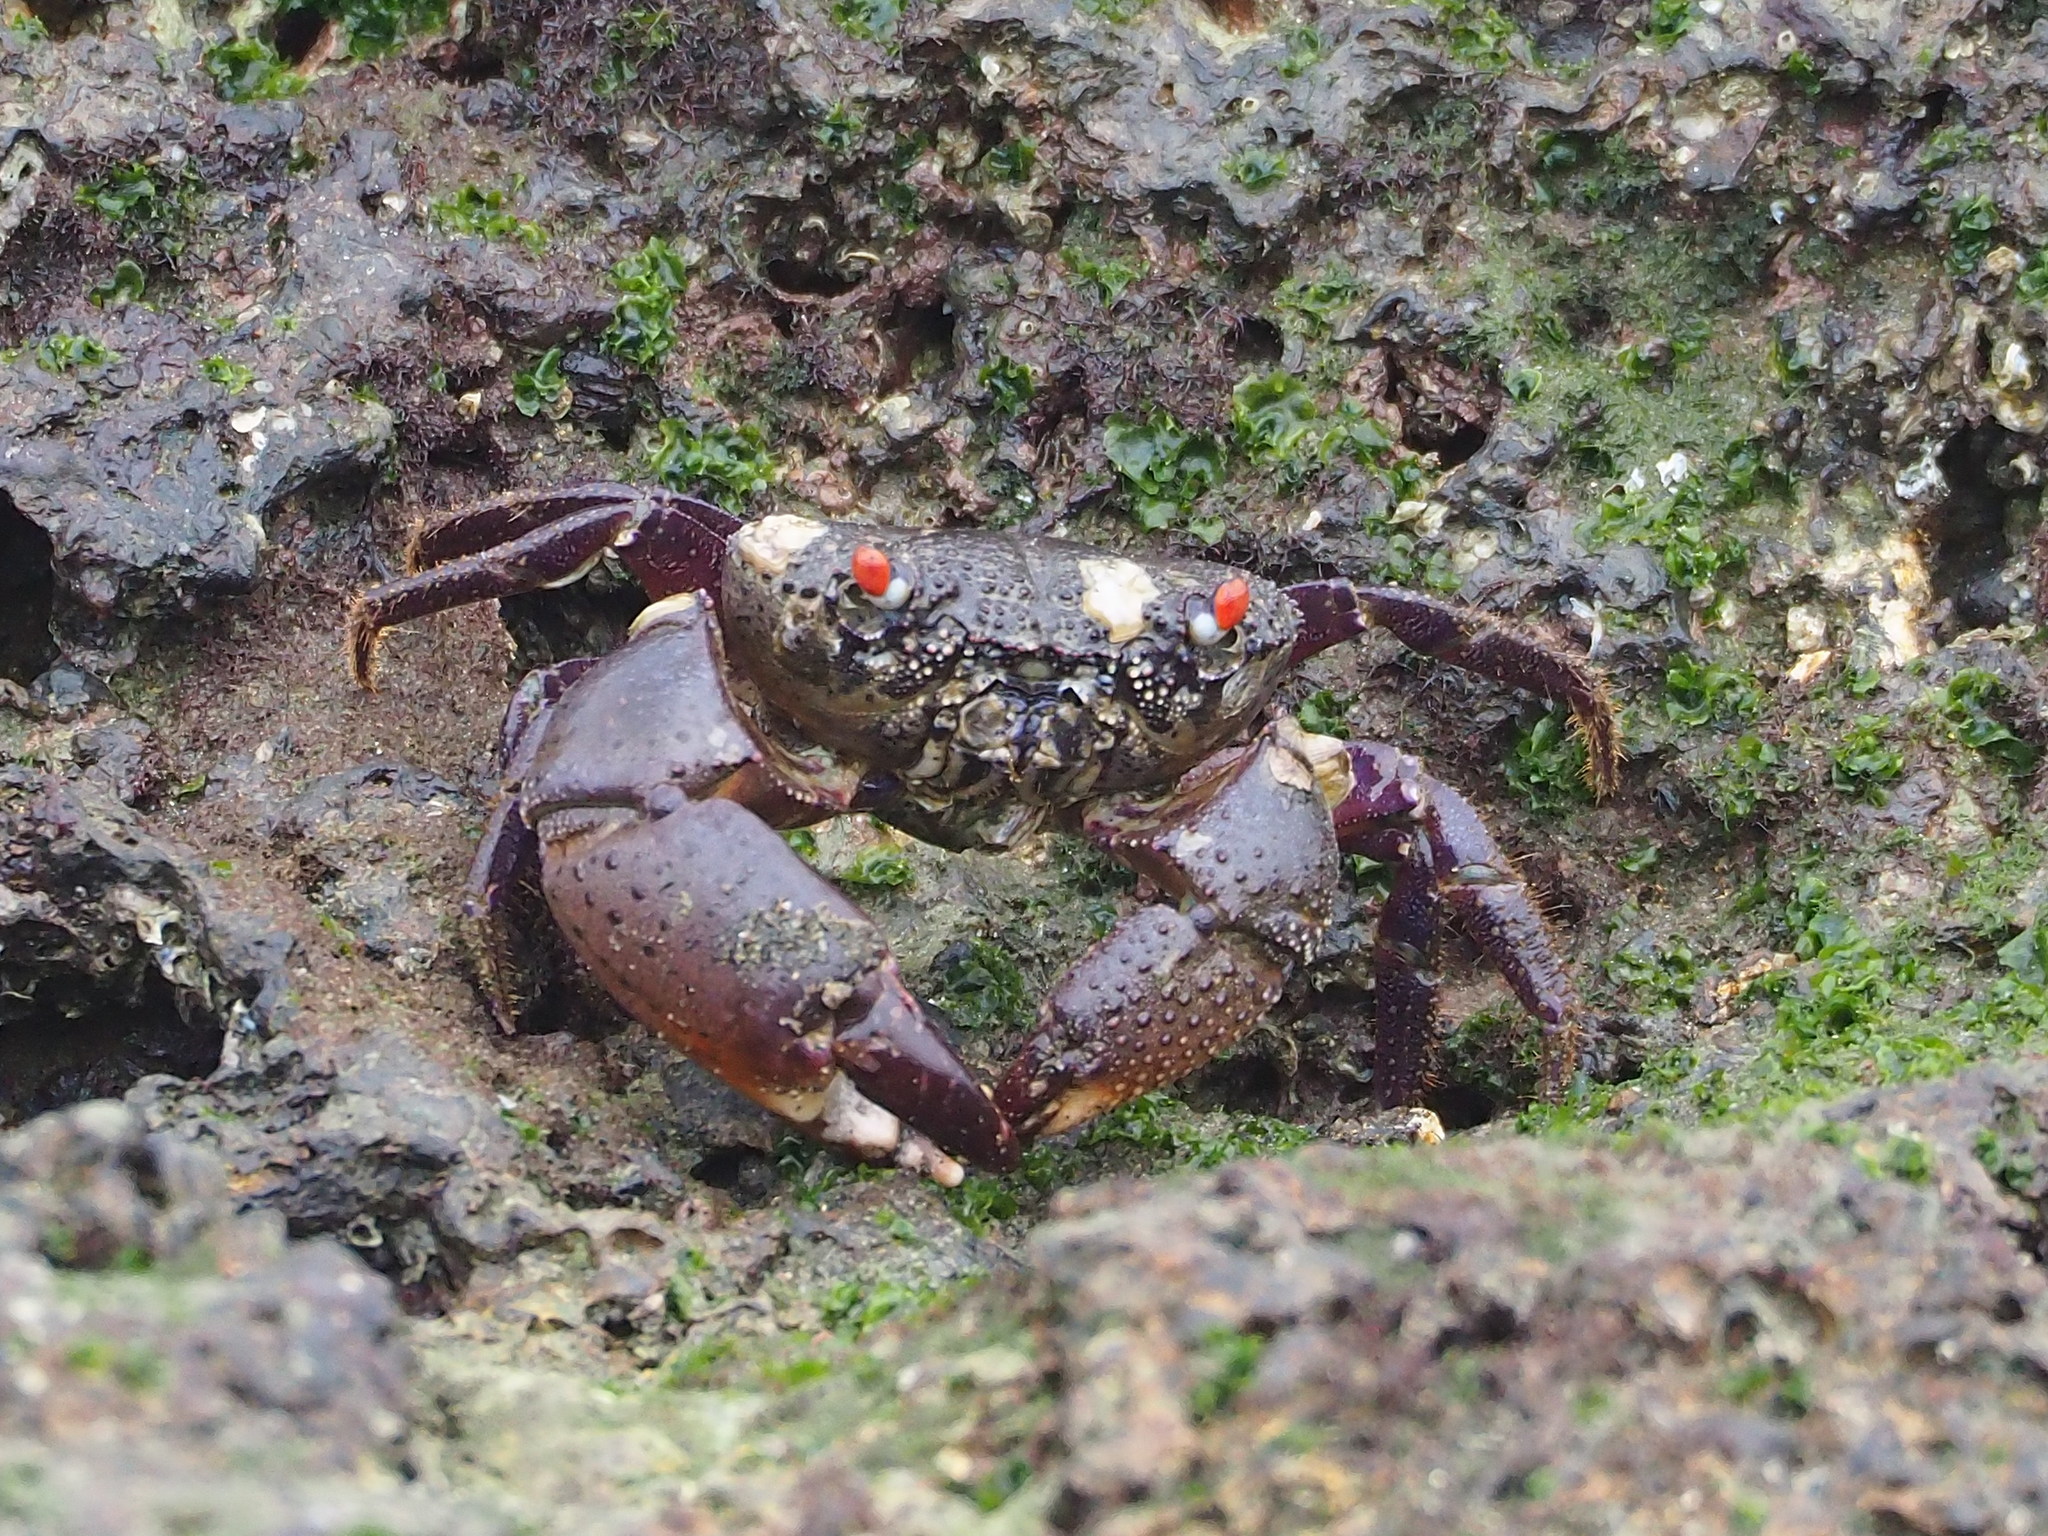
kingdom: Animalia
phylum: Arthropoda
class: Malacostraca
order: Decapoda
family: Eriphiidae
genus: Eriphia
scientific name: Eriphia ferox
